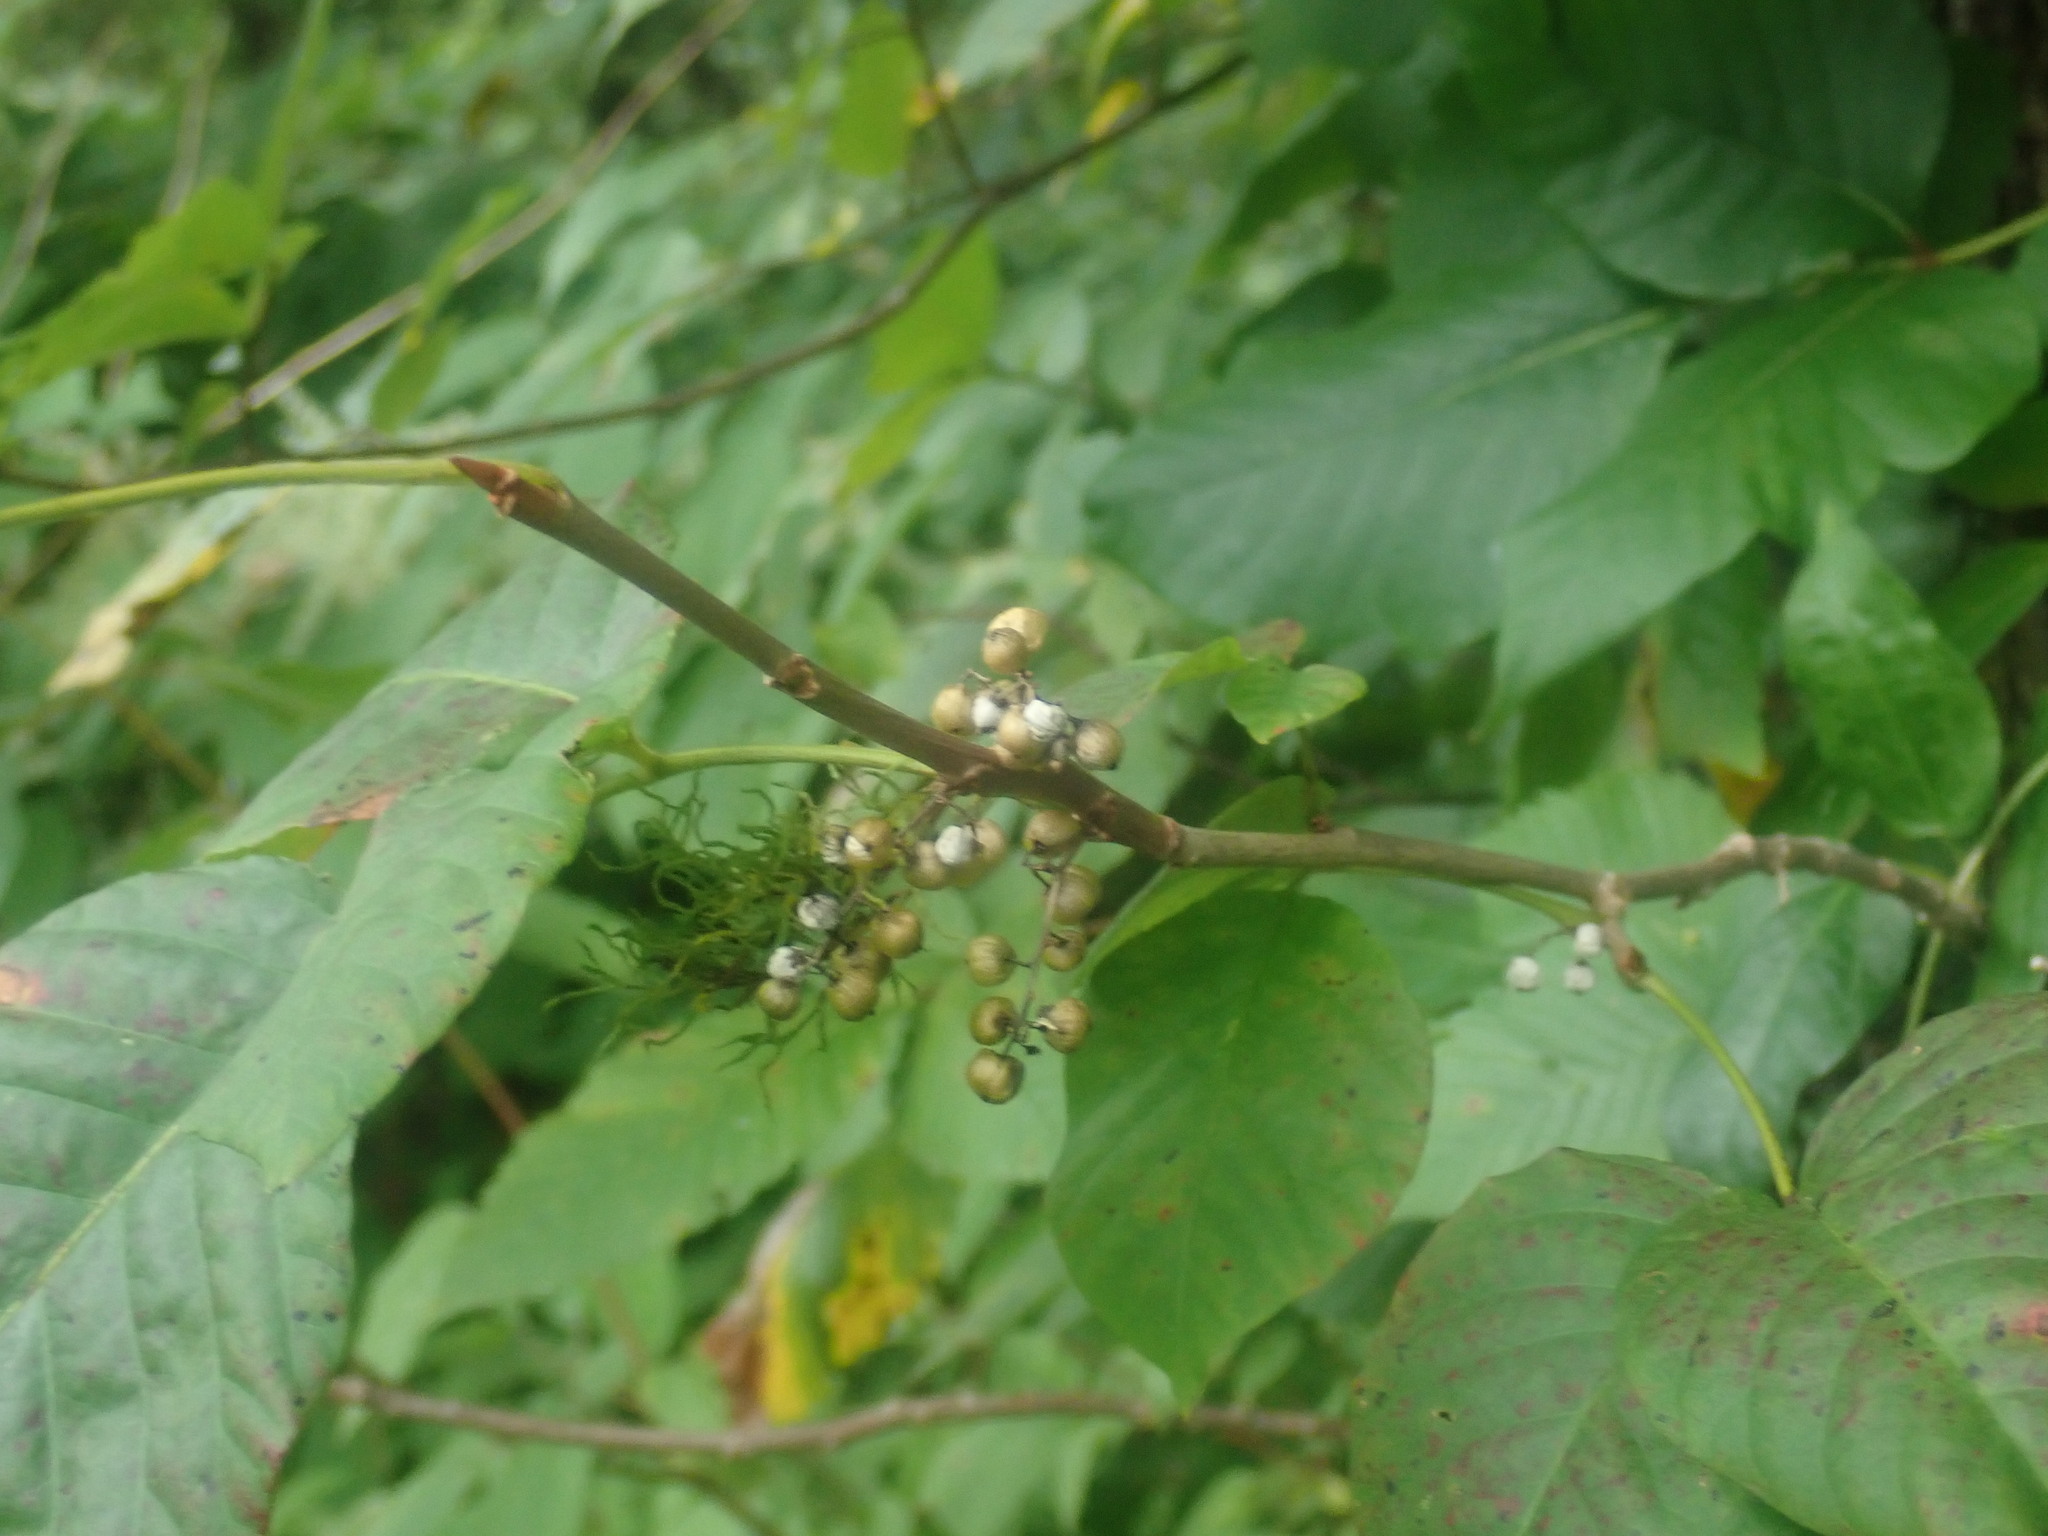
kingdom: Plantae
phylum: Tracheophyta
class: Magnoliopsida
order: Sapindales
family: Anacardiaceae
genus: Toxicodendron
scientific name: Toxicodendron radicans
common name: Poison ivy
